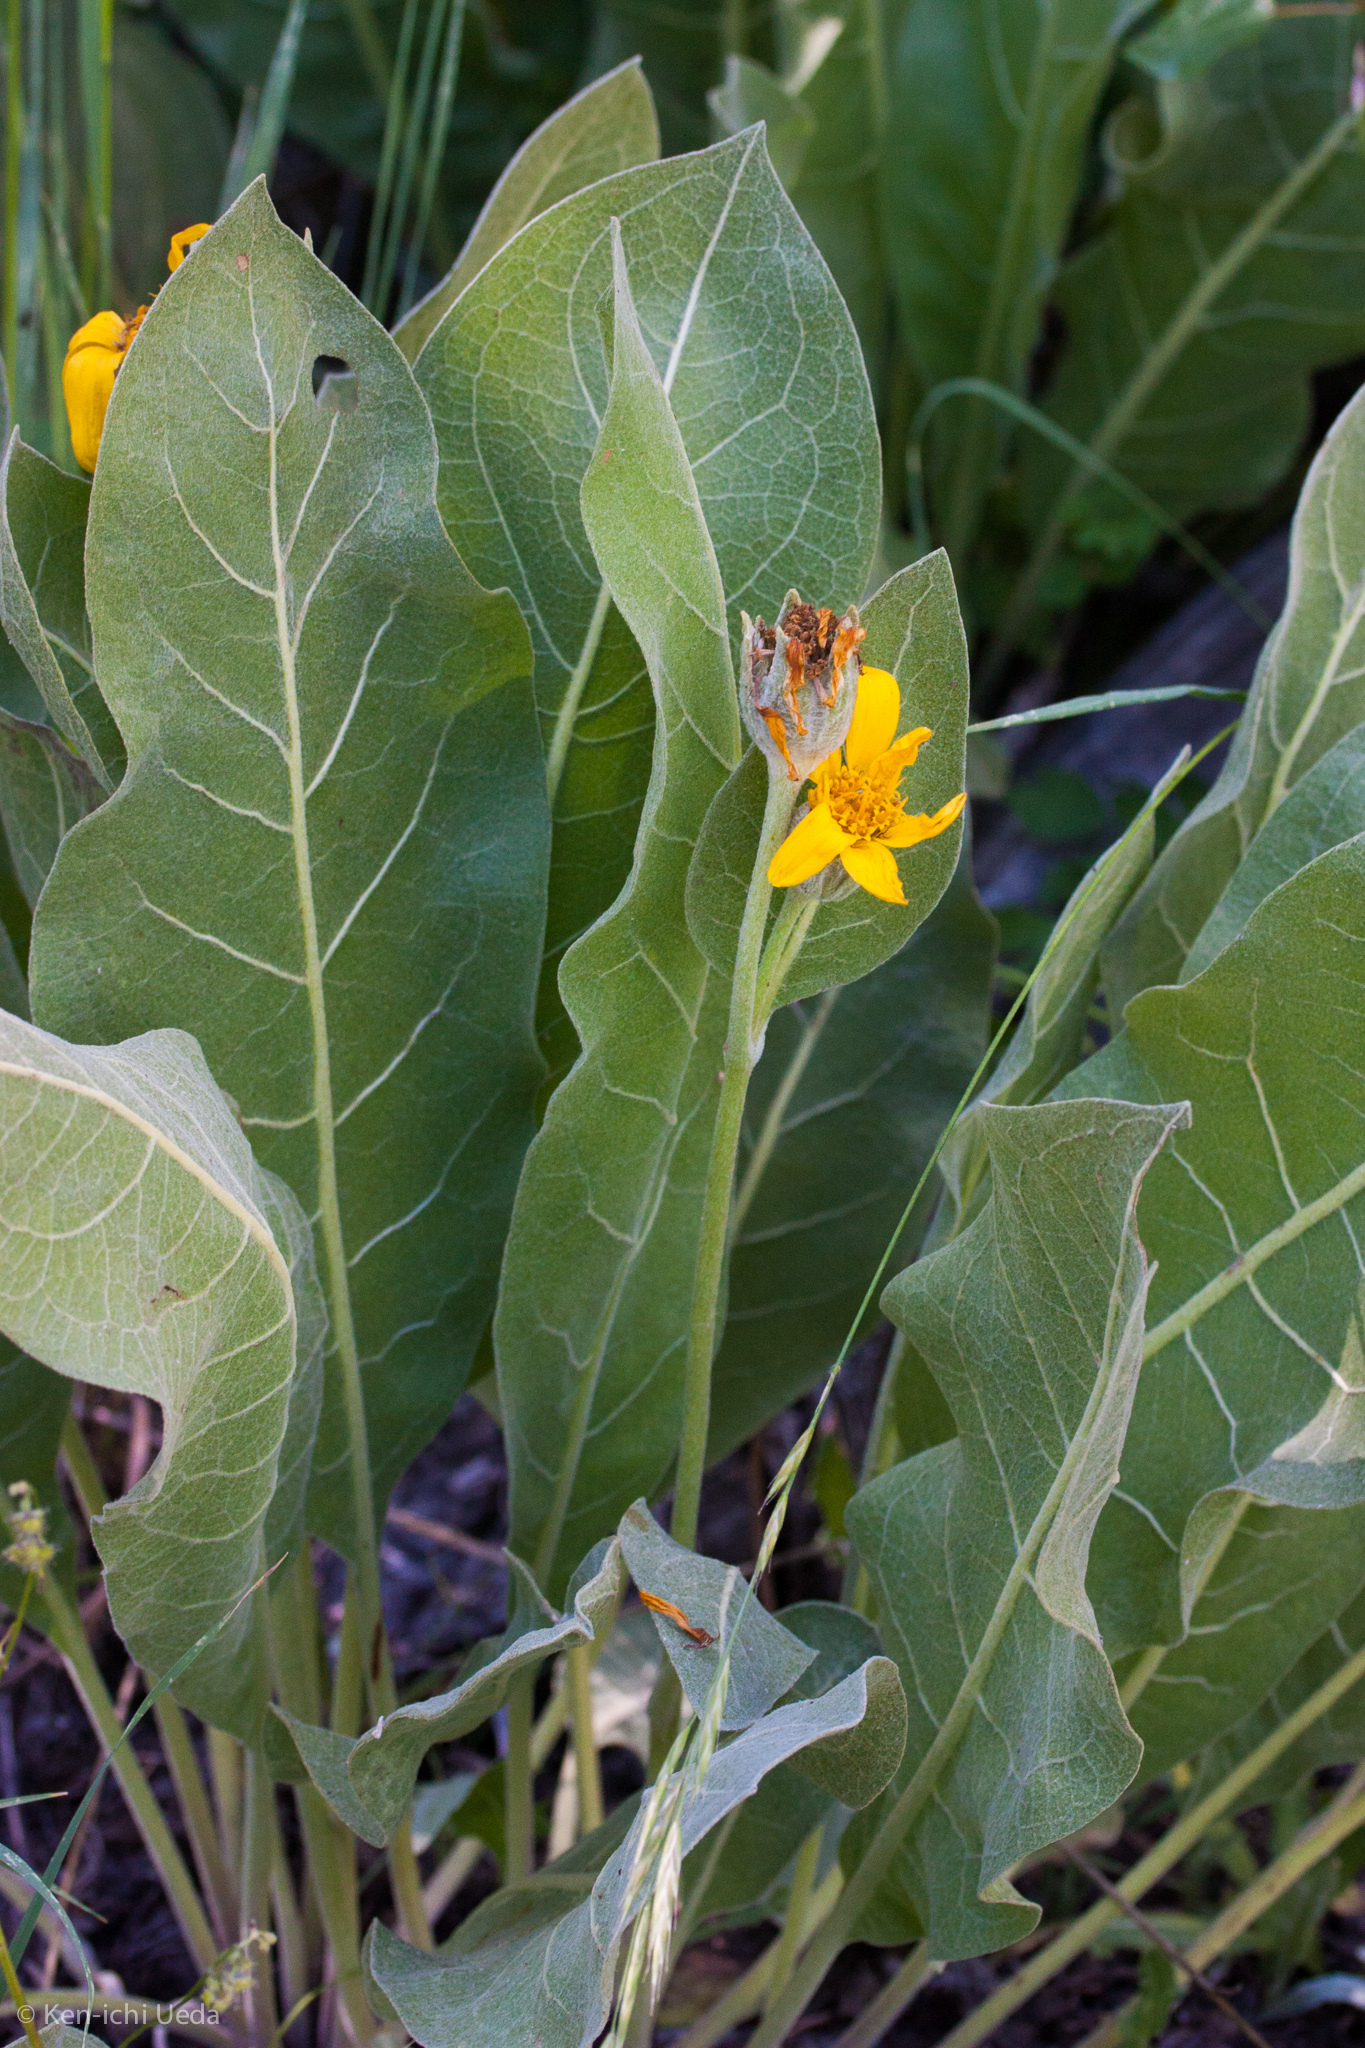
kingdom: Plantae
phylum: Tracheophyta
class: Magnoliopsida
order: Asterales
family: Asteraceae
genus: Wyethia
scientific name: Wyethia mollis
